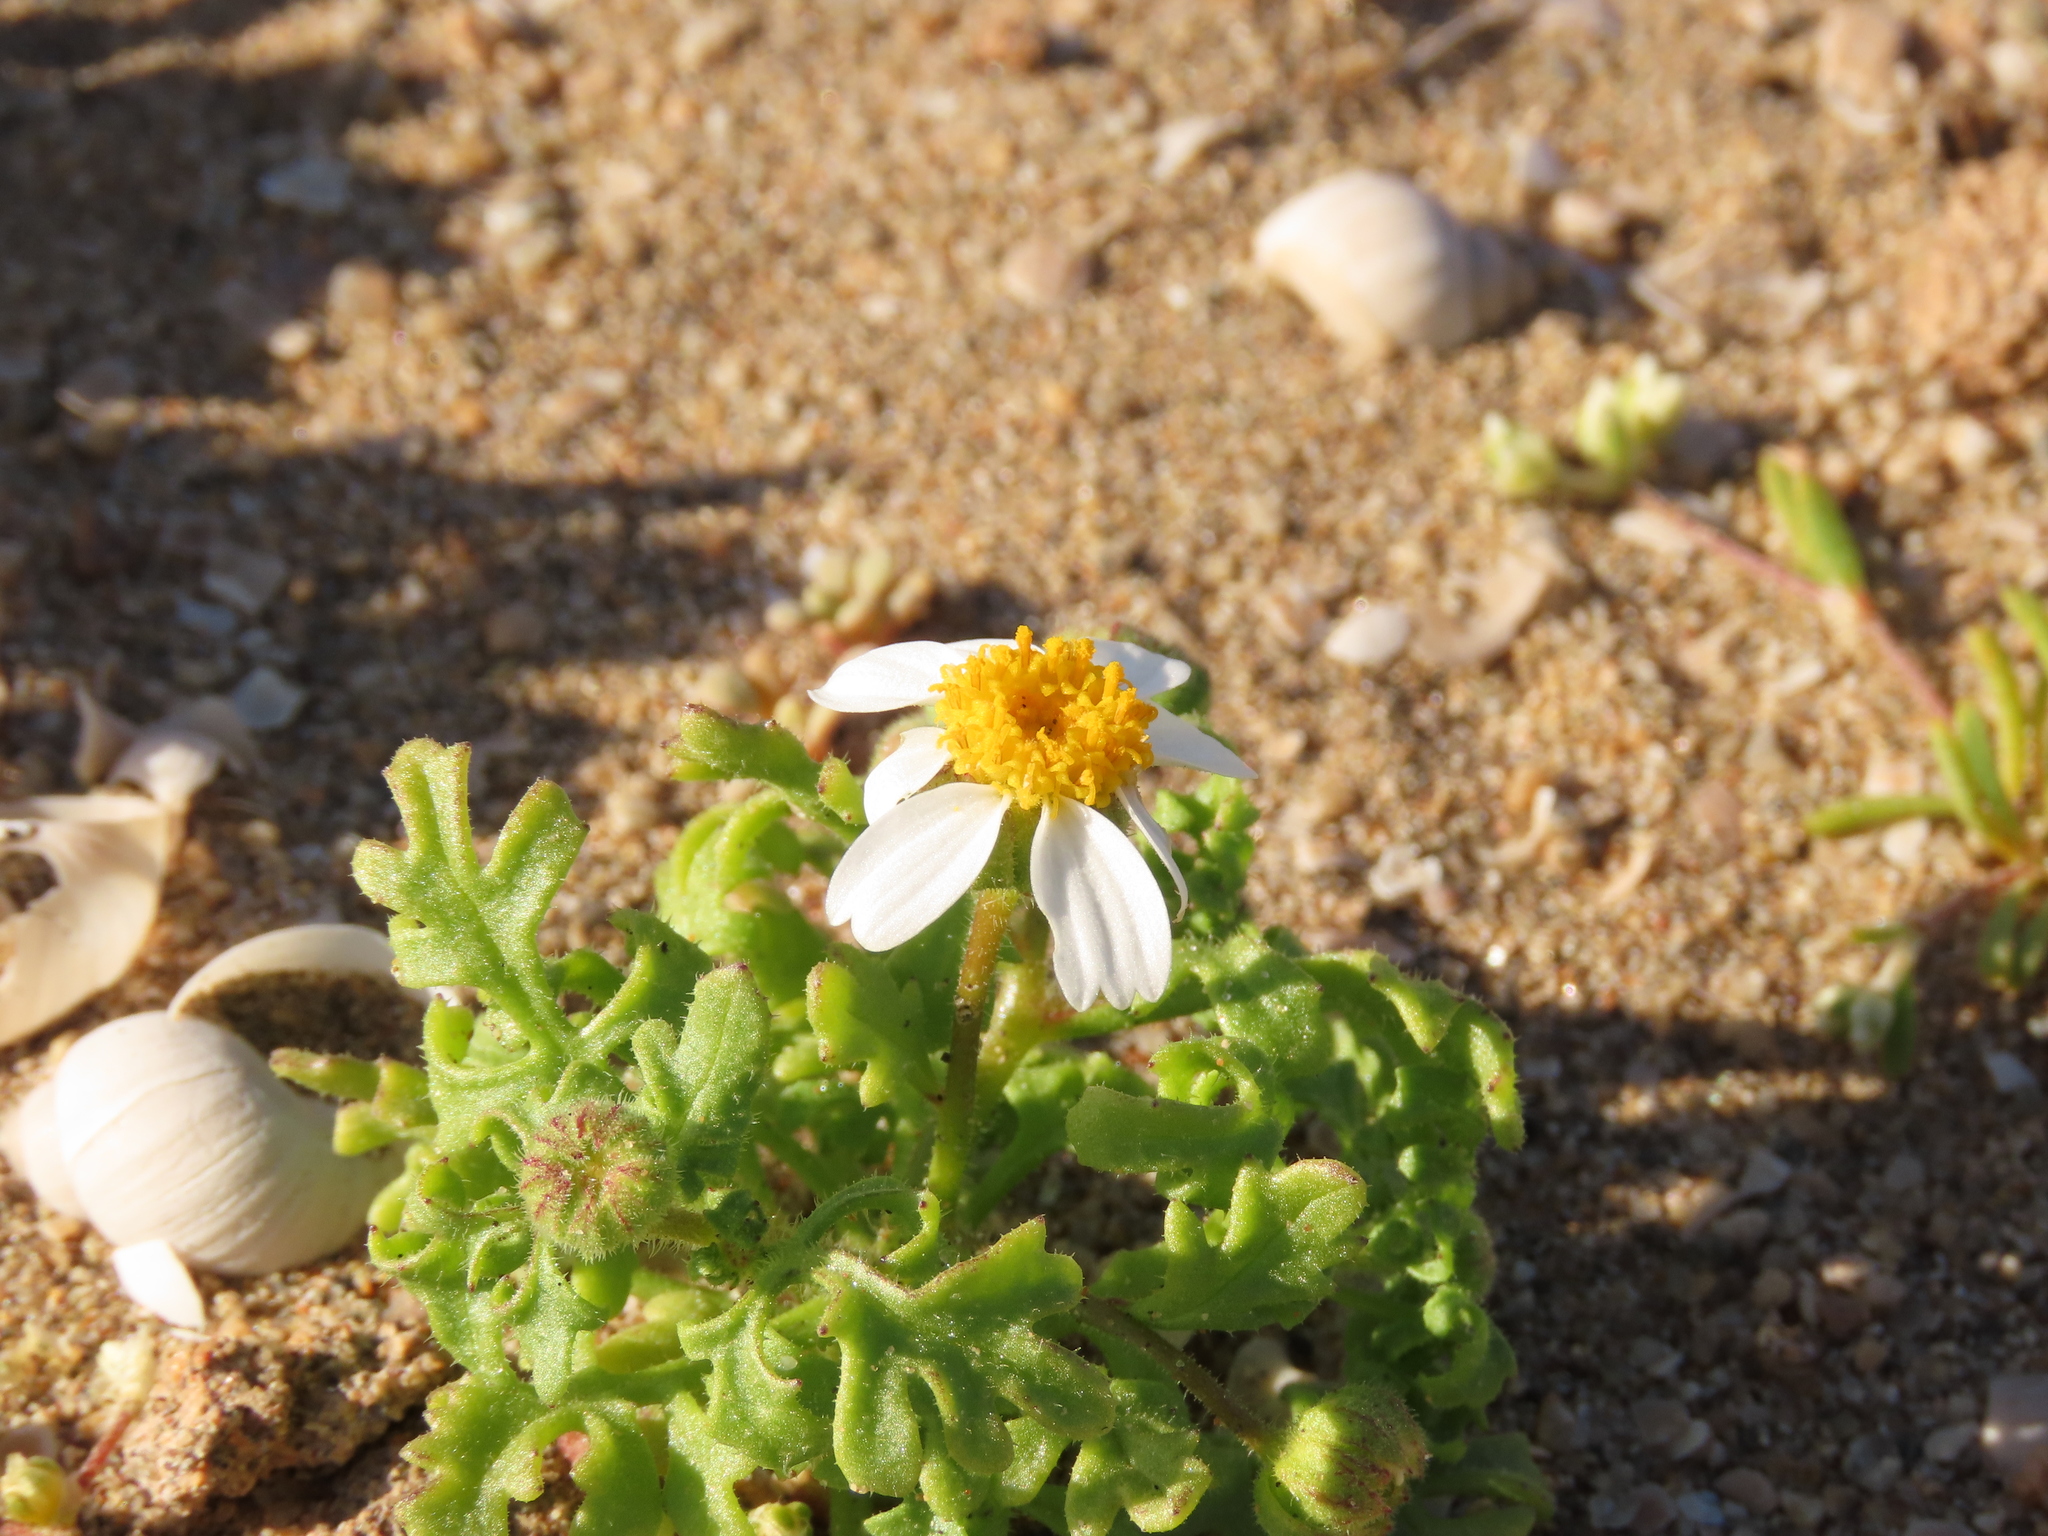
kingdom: Plantae
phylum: Tracheophyta
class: Magnoliopsida
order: Asterales
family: Asteraceae
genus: Laphamia
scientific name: Laphamia emoryi
